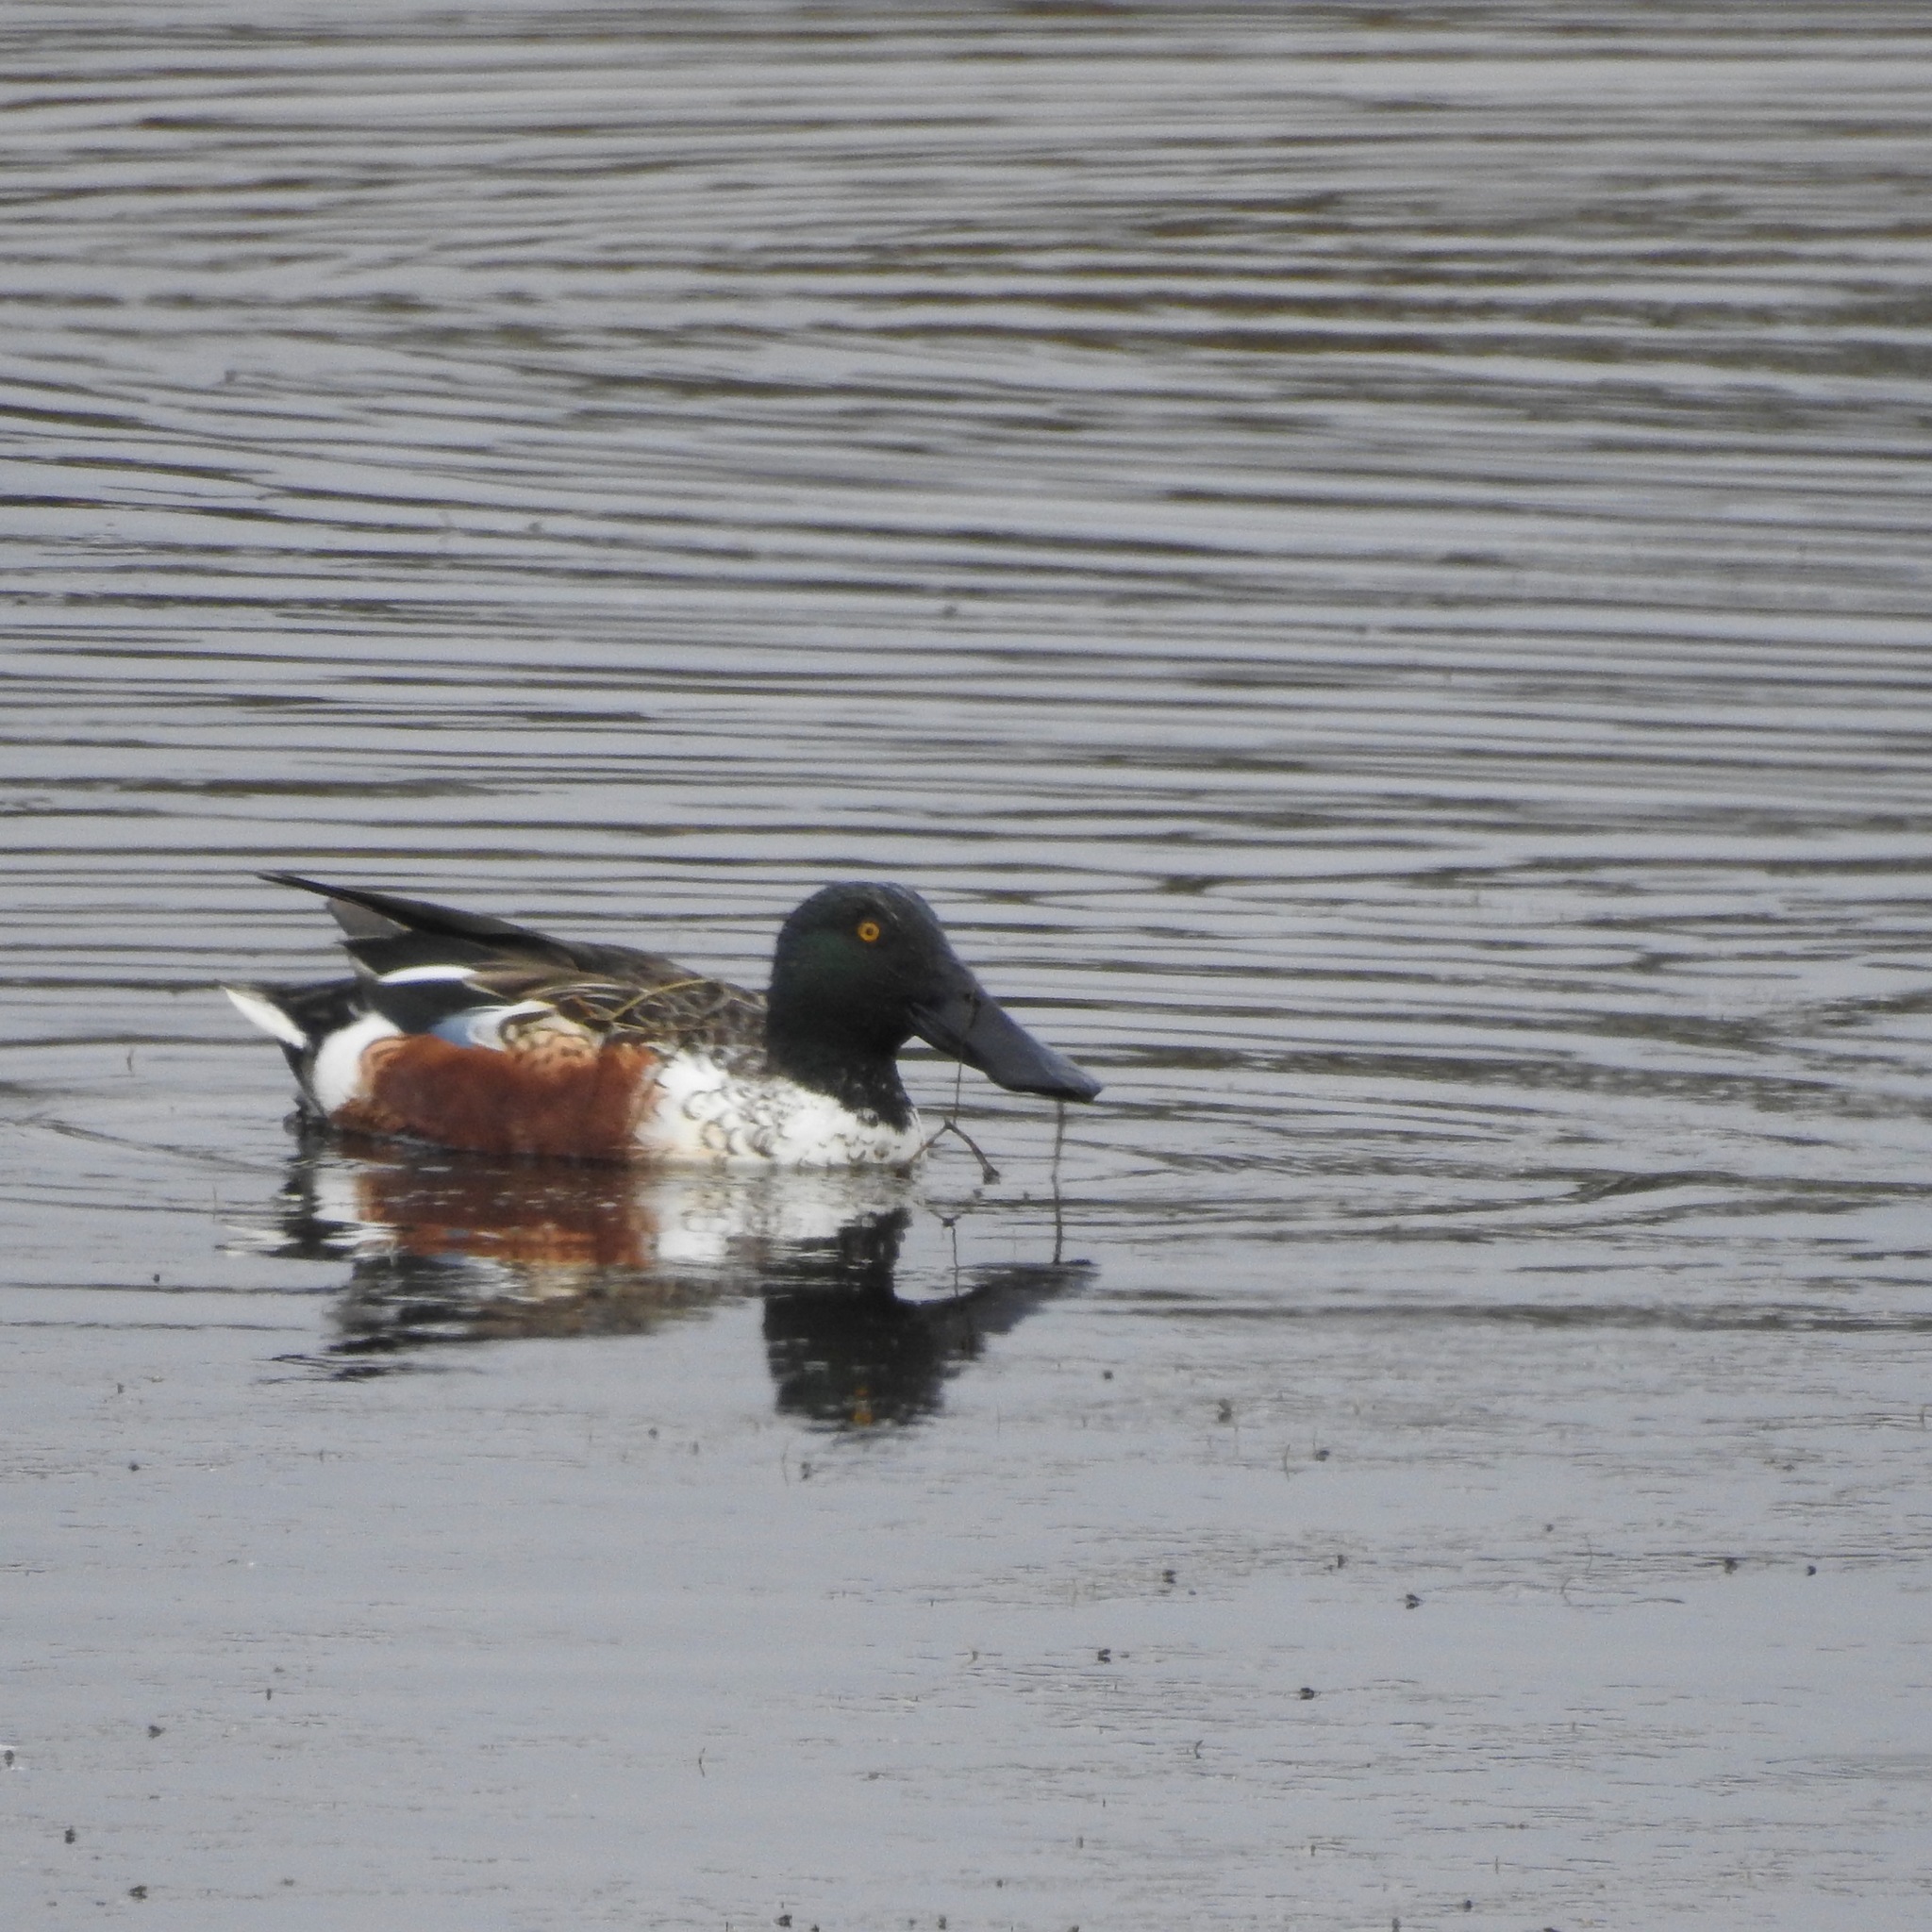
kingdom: Animalia
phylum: Chordata
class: Aves
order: Anseriformes
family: Anatidae
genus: Spatula
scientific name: Spatula clypeata
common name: Northern shoveler
